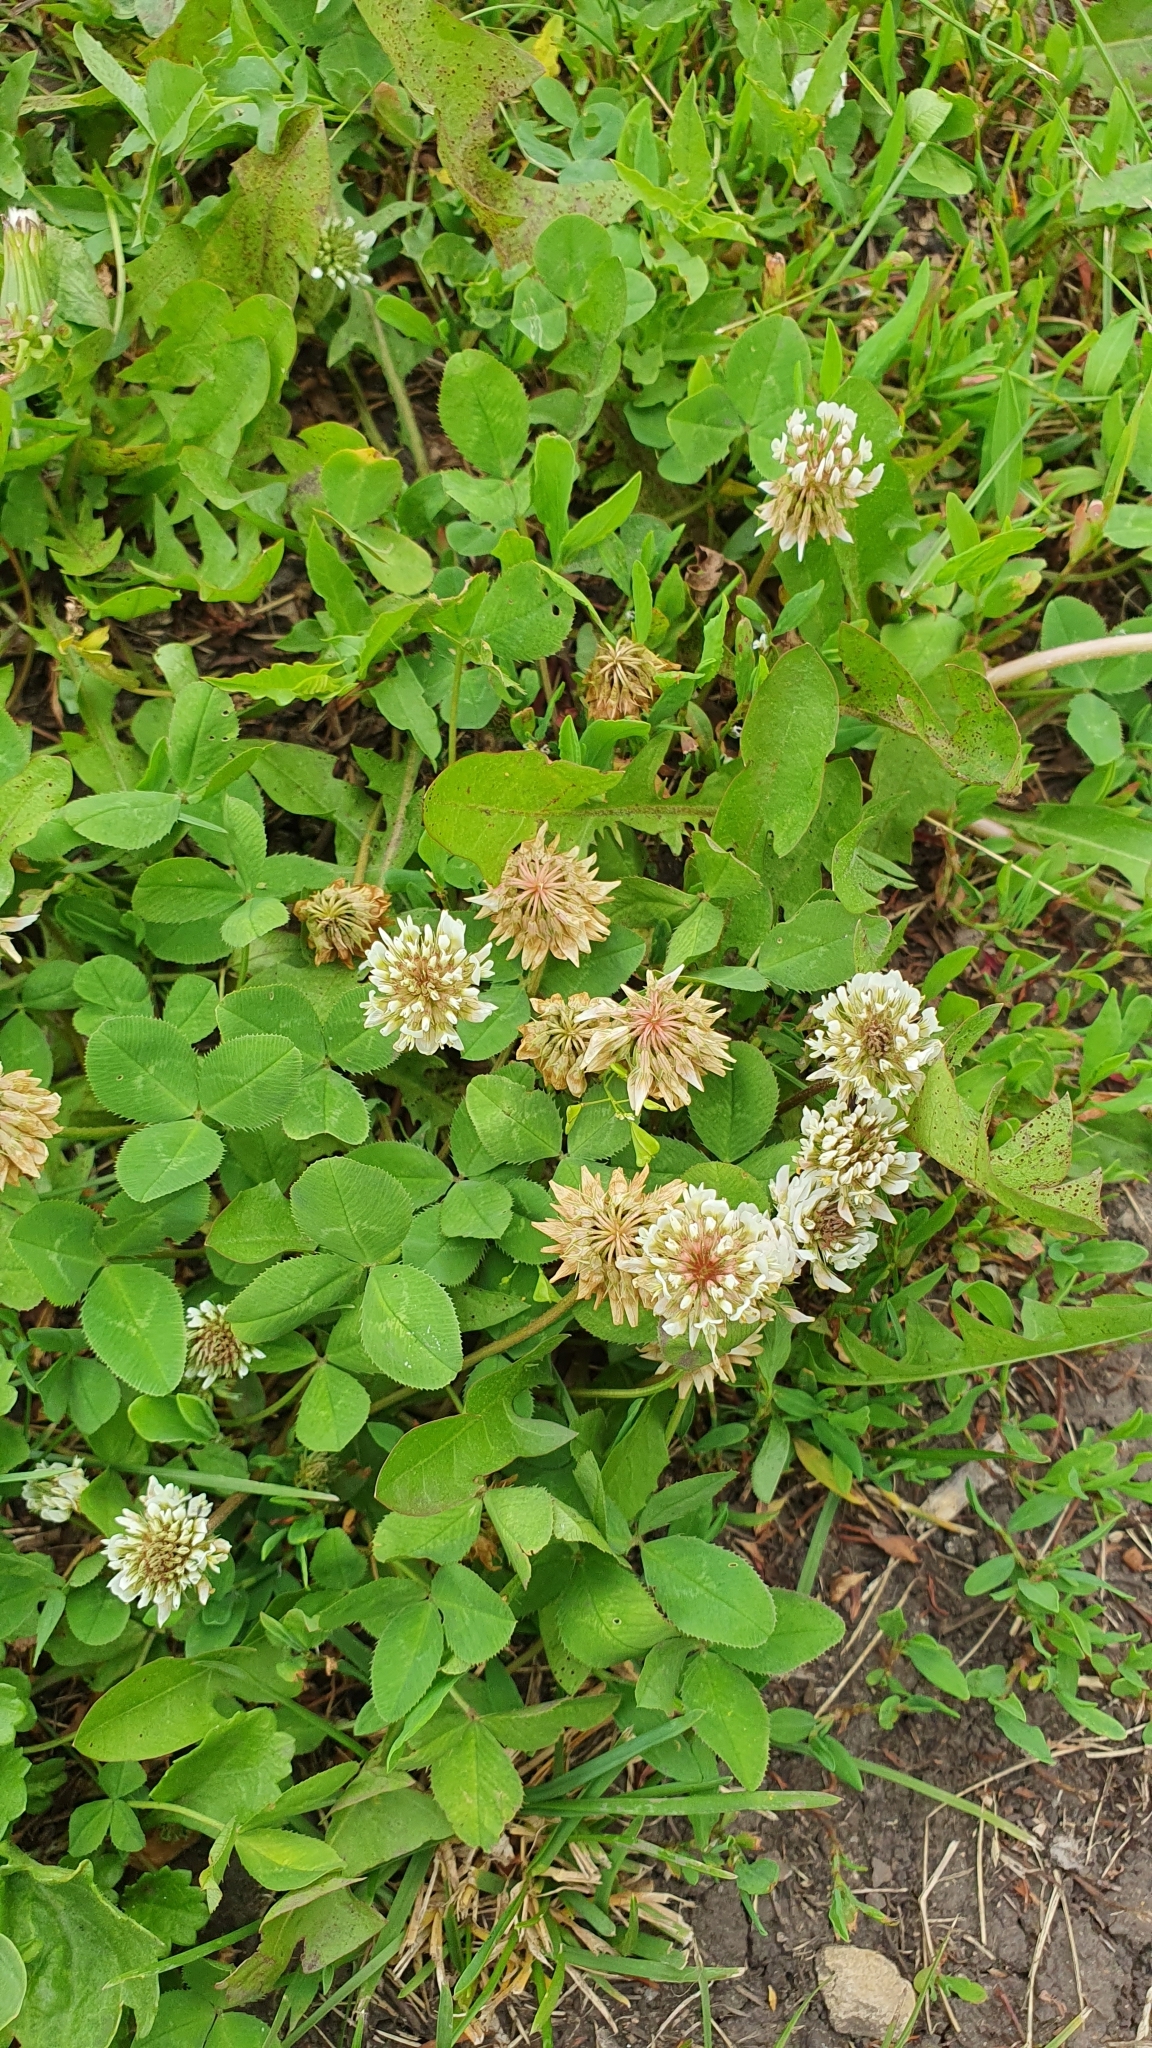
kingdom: Plantae
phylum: Tracheophyta
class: Magnoliopsida
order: Fabales
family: Fabaceae
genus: Trifolium
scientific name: Trifolium repens
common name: White clover
